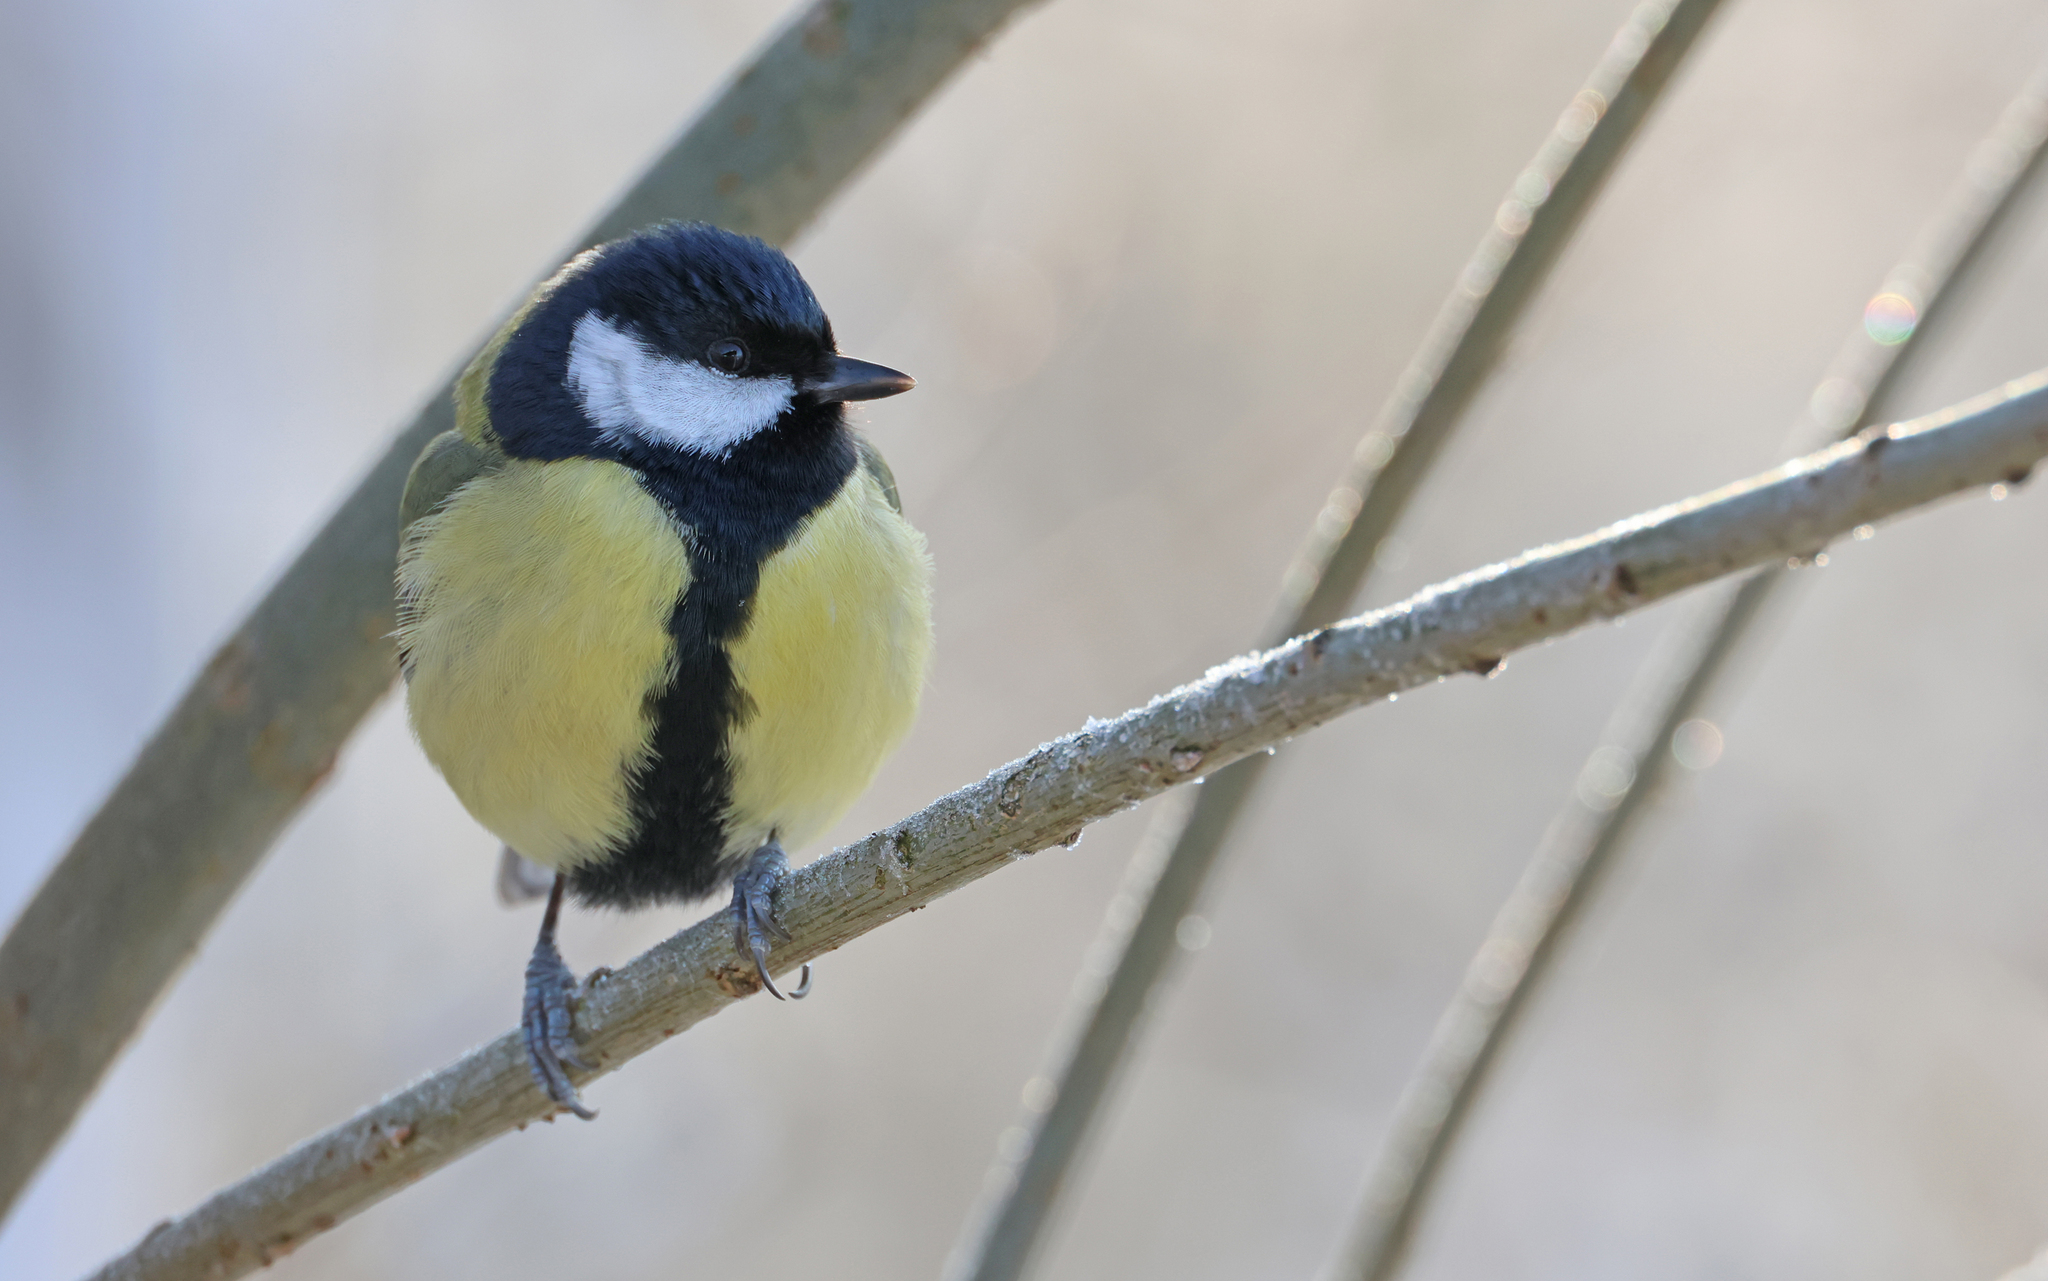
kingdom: Animalia
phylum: Chordata
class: Aves
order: Passeriformes
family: Paridae
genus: Parus
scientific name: Parus major
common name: Great tit
